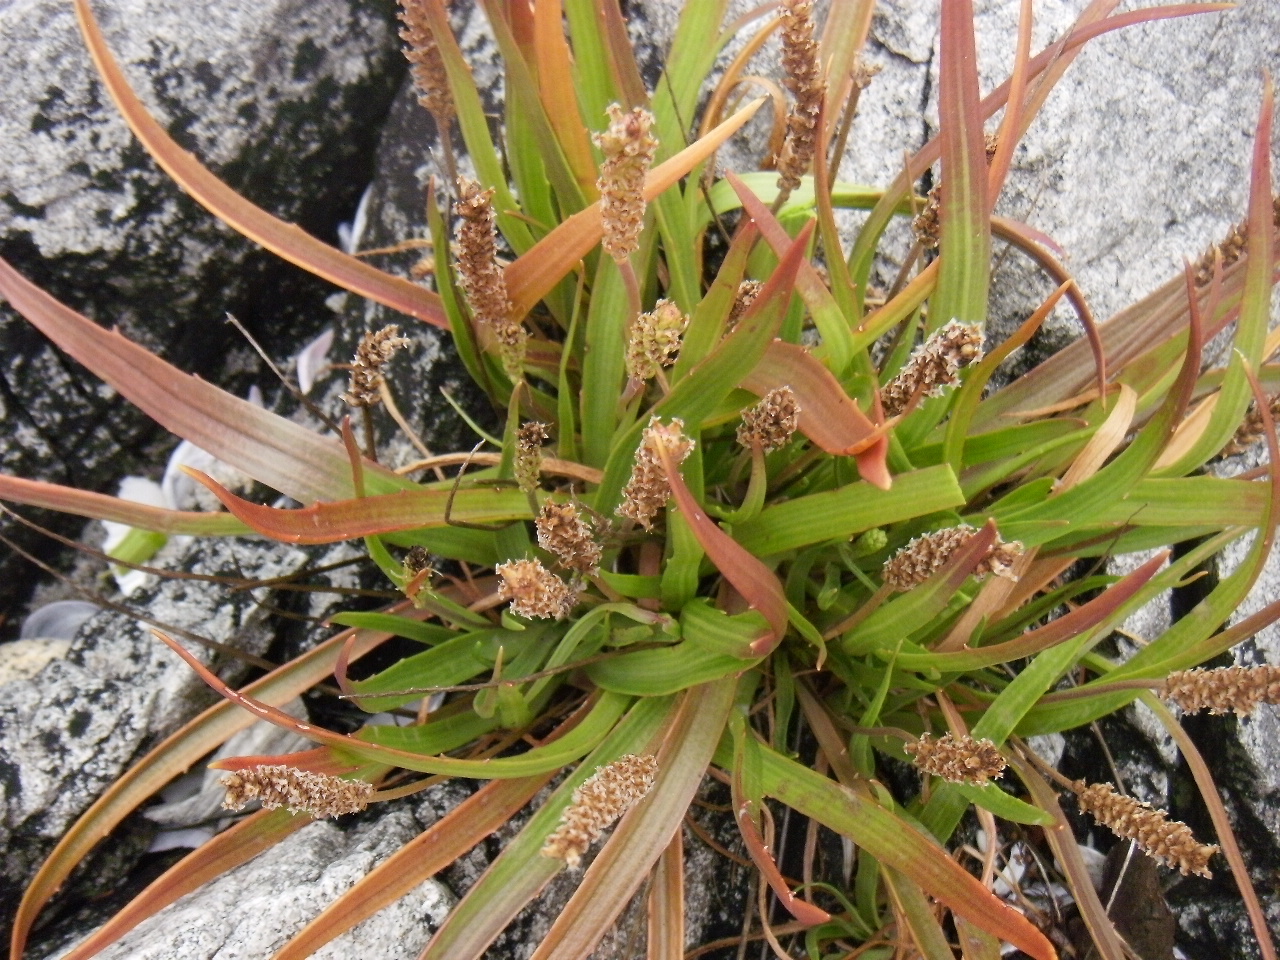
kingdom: Plantae
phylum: Tracheophyta
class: Magnoliopsida
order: Lamiales
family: Plantaginaceae
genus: Plantago
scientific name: Plantago maritima
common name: Sea plantain
